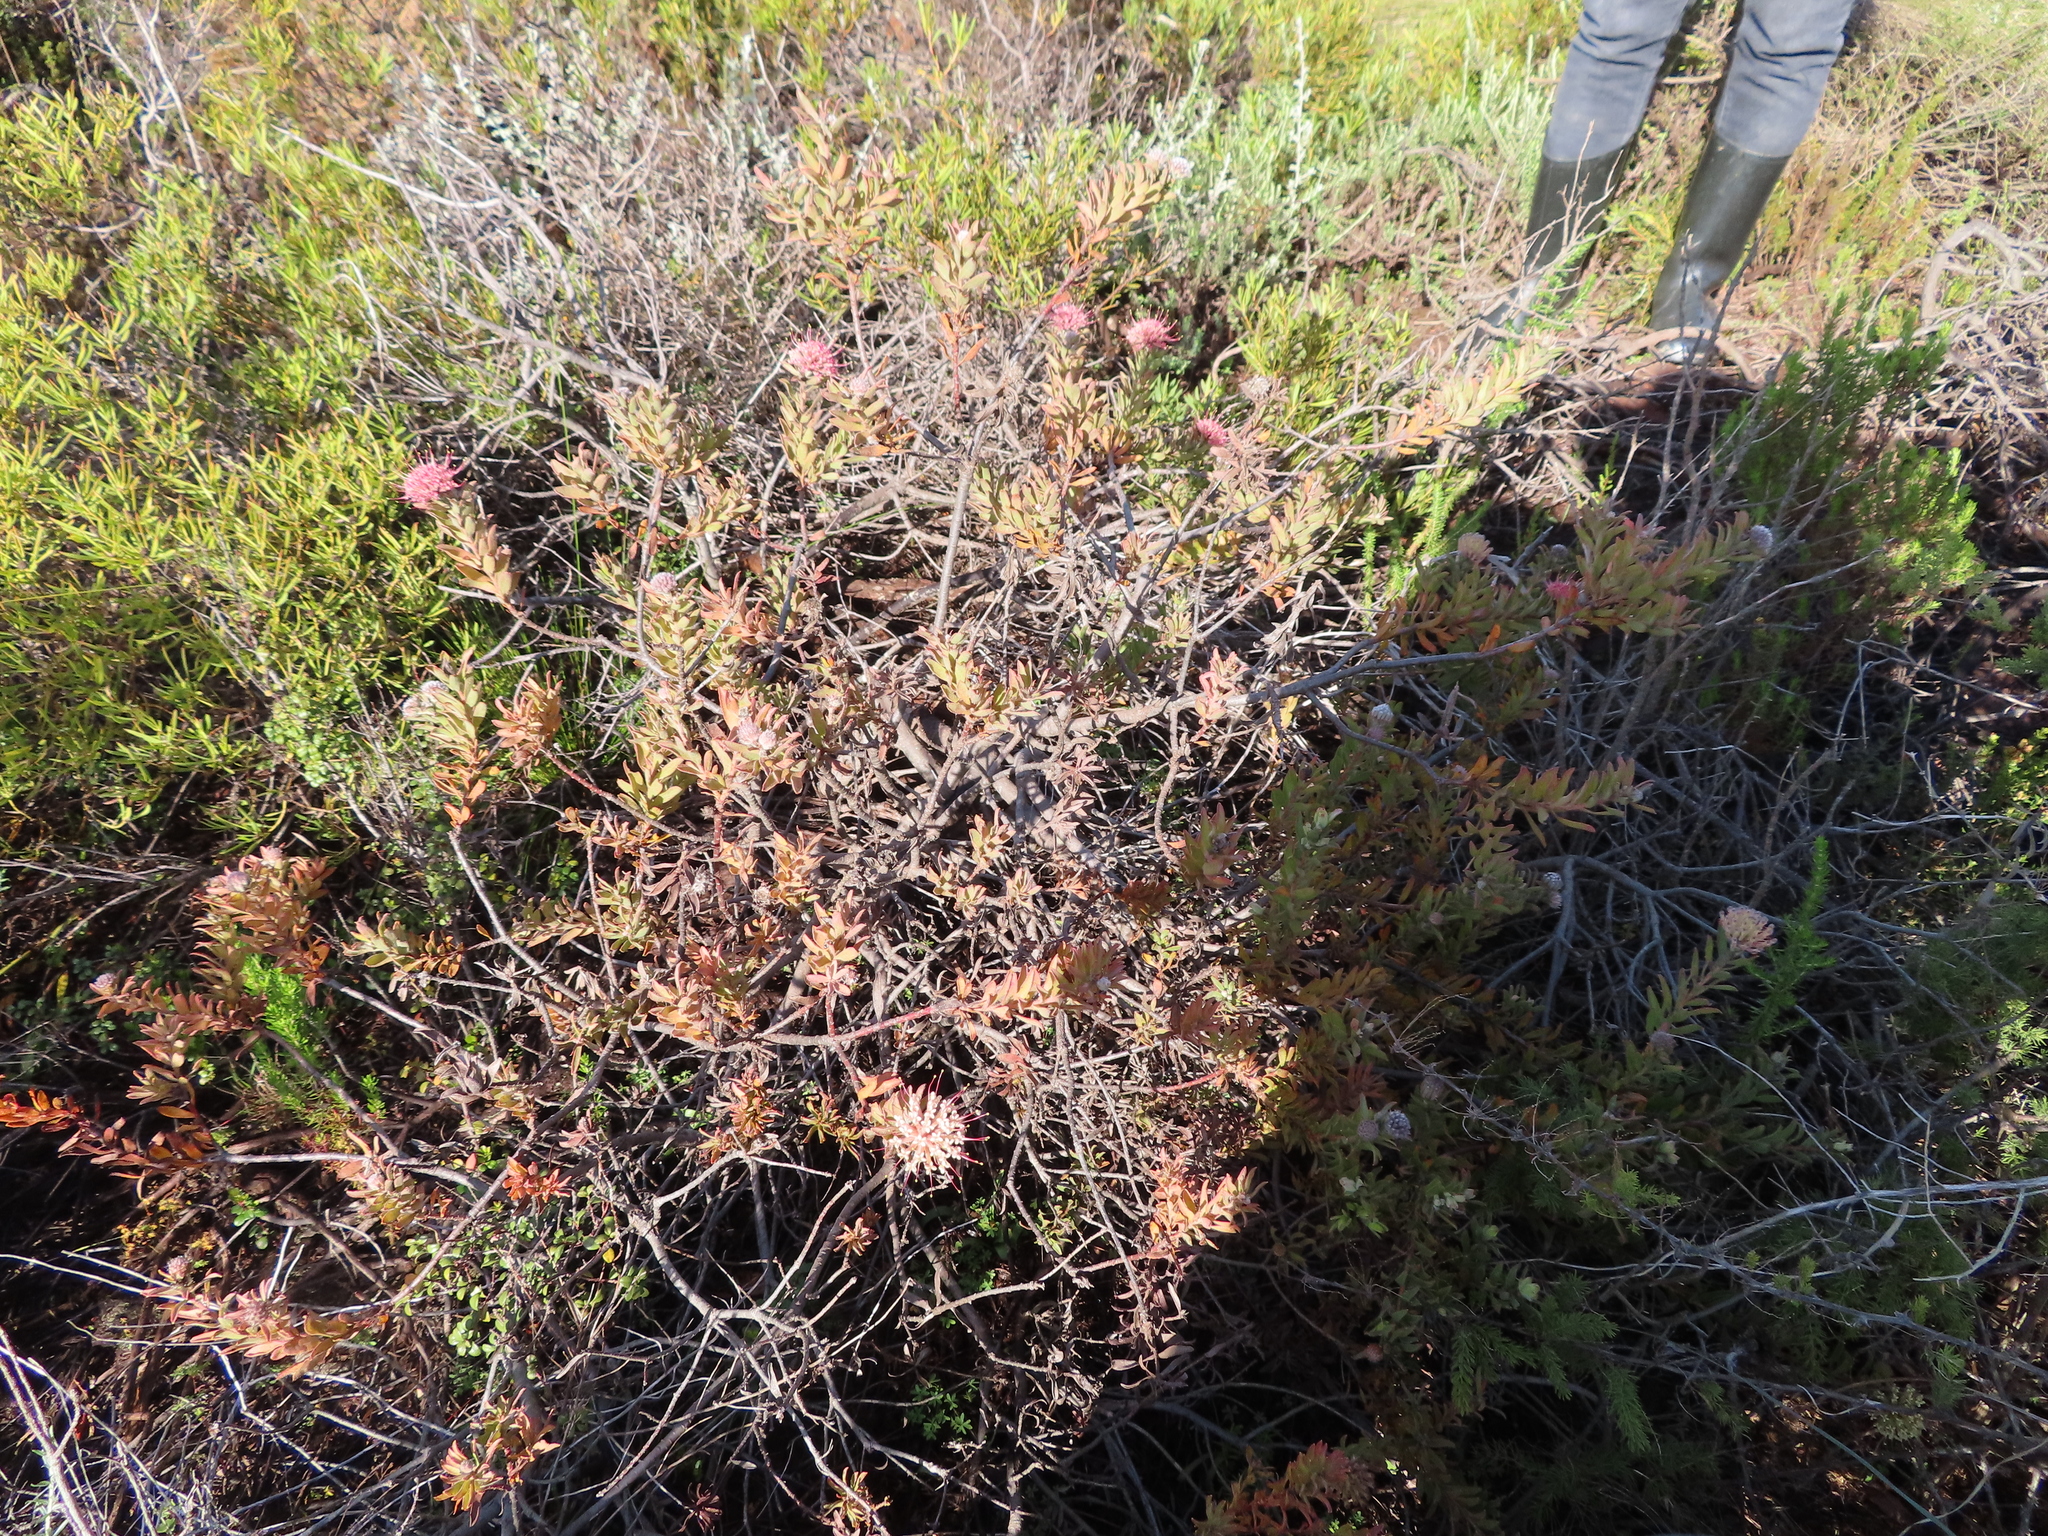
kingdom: Plantae
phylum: Tracheophyta
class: Magnoliopsida
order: Proteales
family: Proteaceae
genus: Leucospermum
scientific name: Leucospermum calligerum
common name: Arid pincushion
